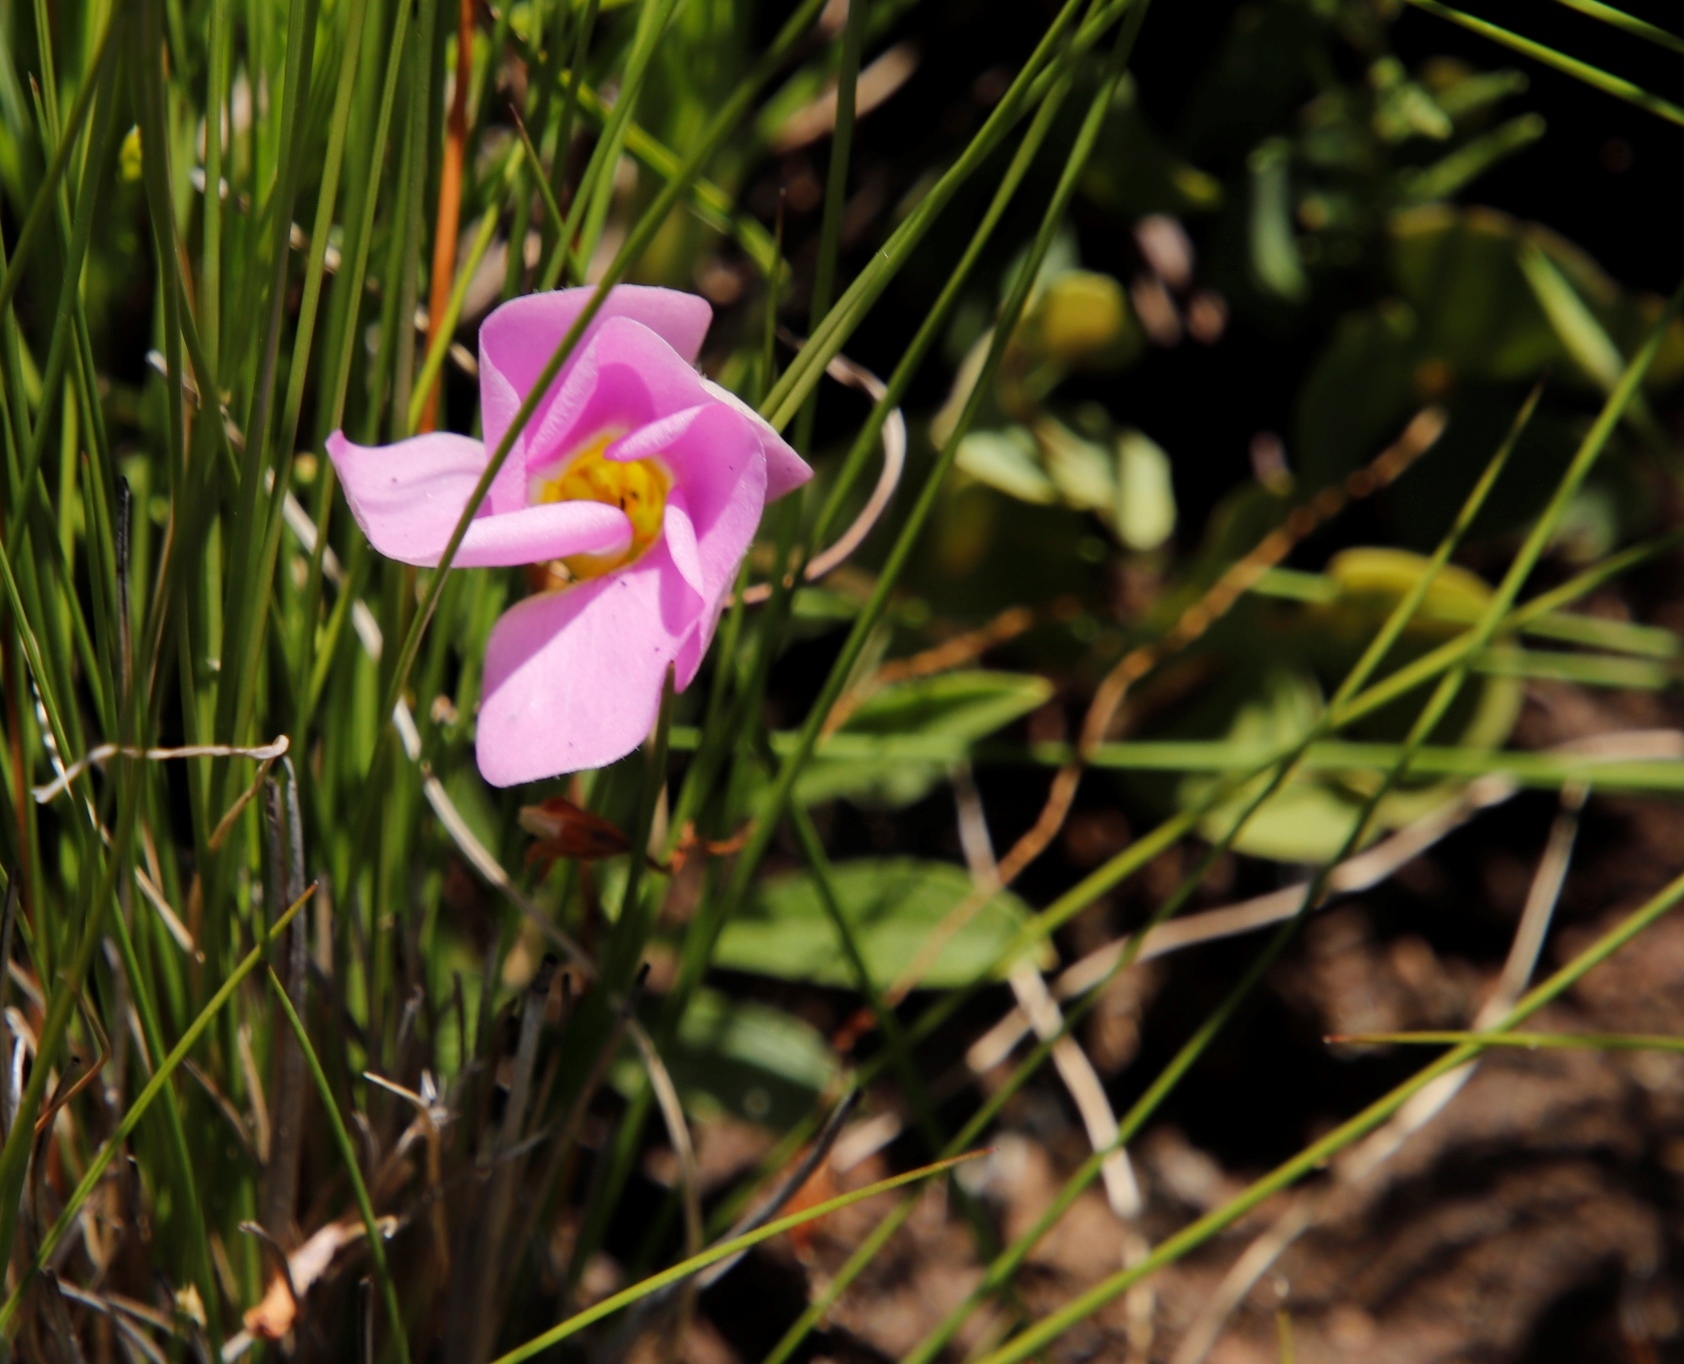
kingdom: Plantae
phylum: Tracheophyta
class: Magnoliopsida
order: Oxalidales
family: Oxalidaceae
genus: Oxalis
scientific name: Oxalis obliquifolia
